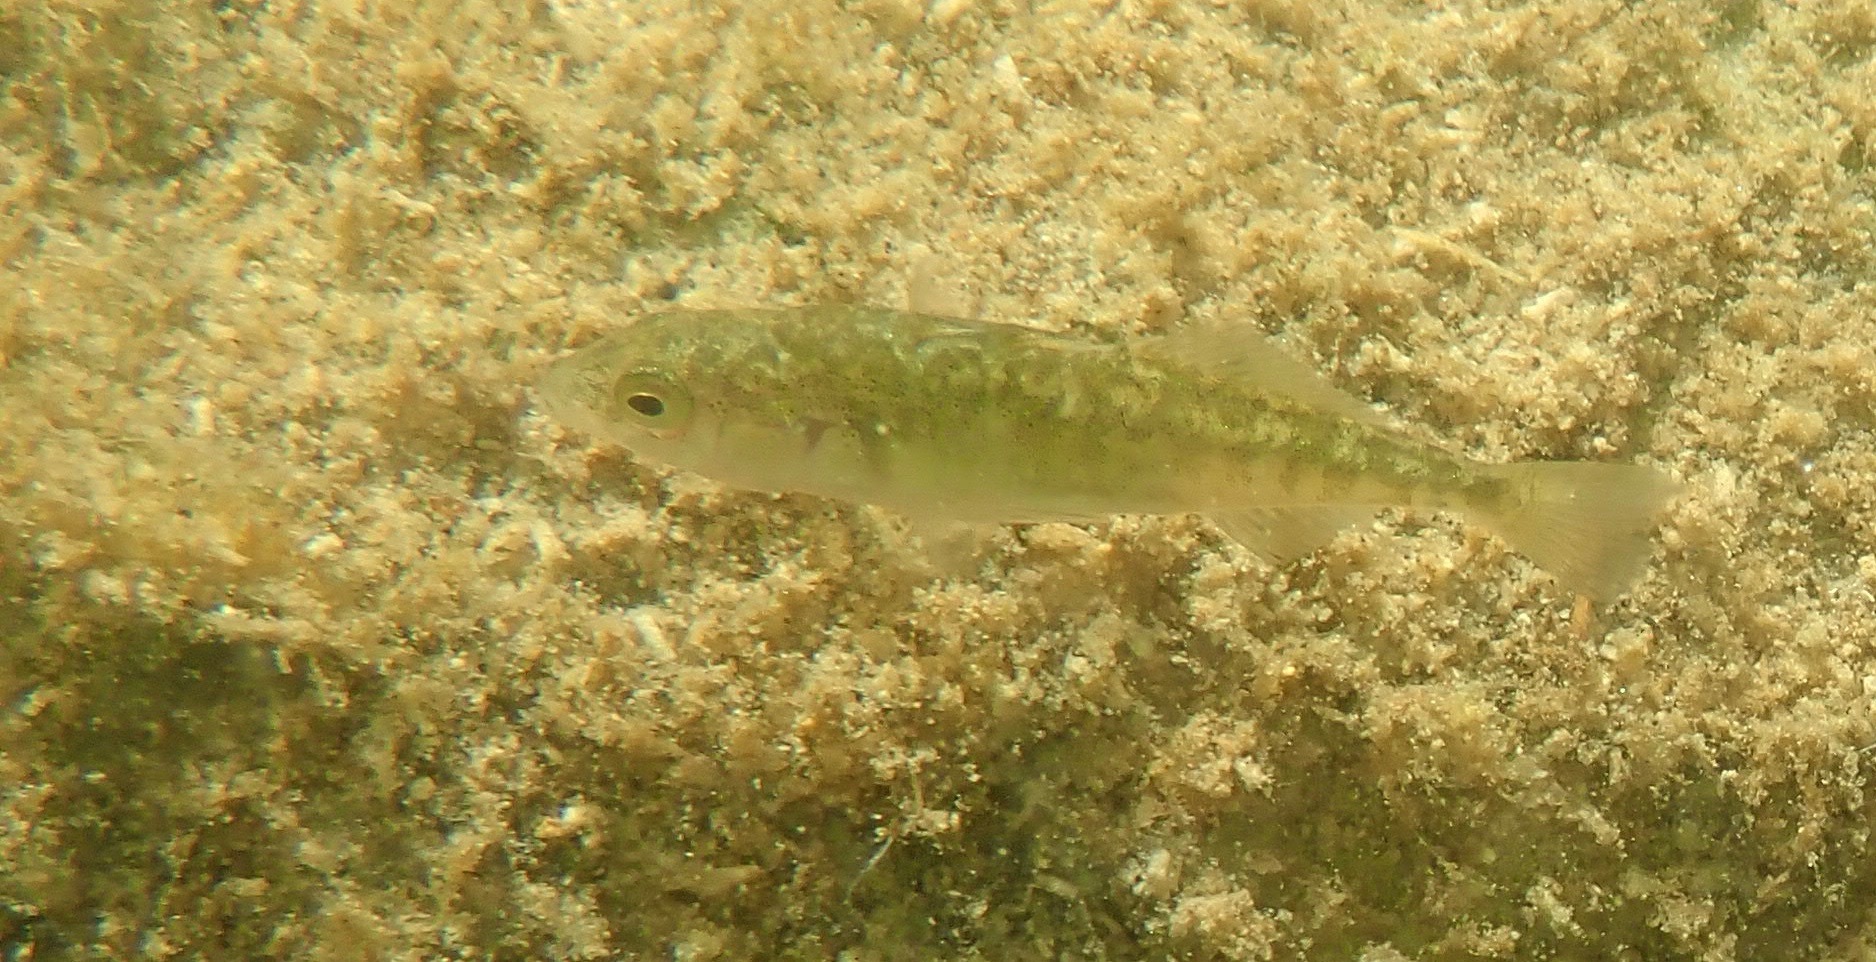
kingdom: Animalia
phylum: Chordata
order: Gasterosteiformes
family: Gasterosteidae
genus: Gasterosteus
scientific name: Gasterosteus aculeatus
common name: Three-spined stickleback
